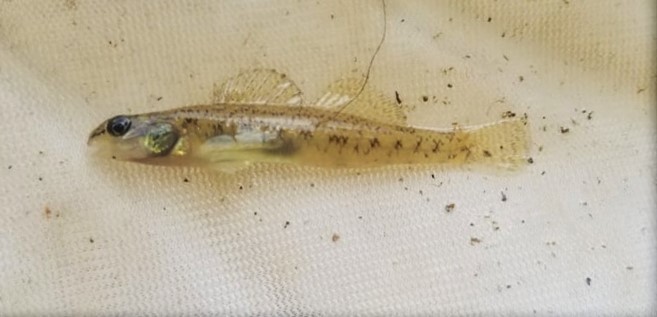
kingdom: Animalia
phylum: Chordata
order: Perciformes
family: Percidae
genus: Etheostoma
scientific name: Etheostoma nigrum
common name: Johnny darter
